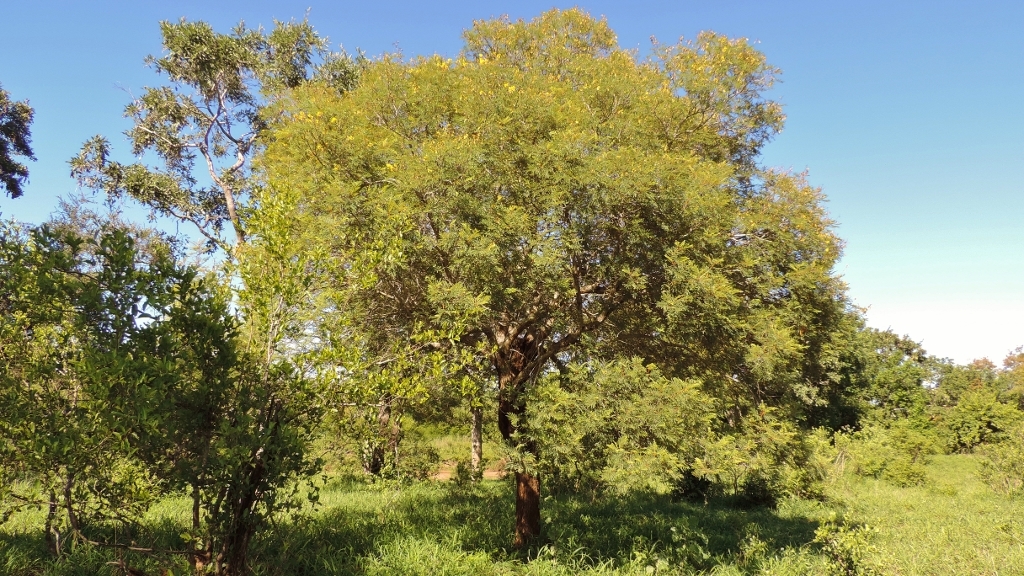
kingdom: Plantae
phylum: Tracheophyta
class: Magnoliopsida
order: Fabales
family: Fabaceae
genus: Peltophorum
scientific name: Peltophorum africanum
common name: African black wattle
